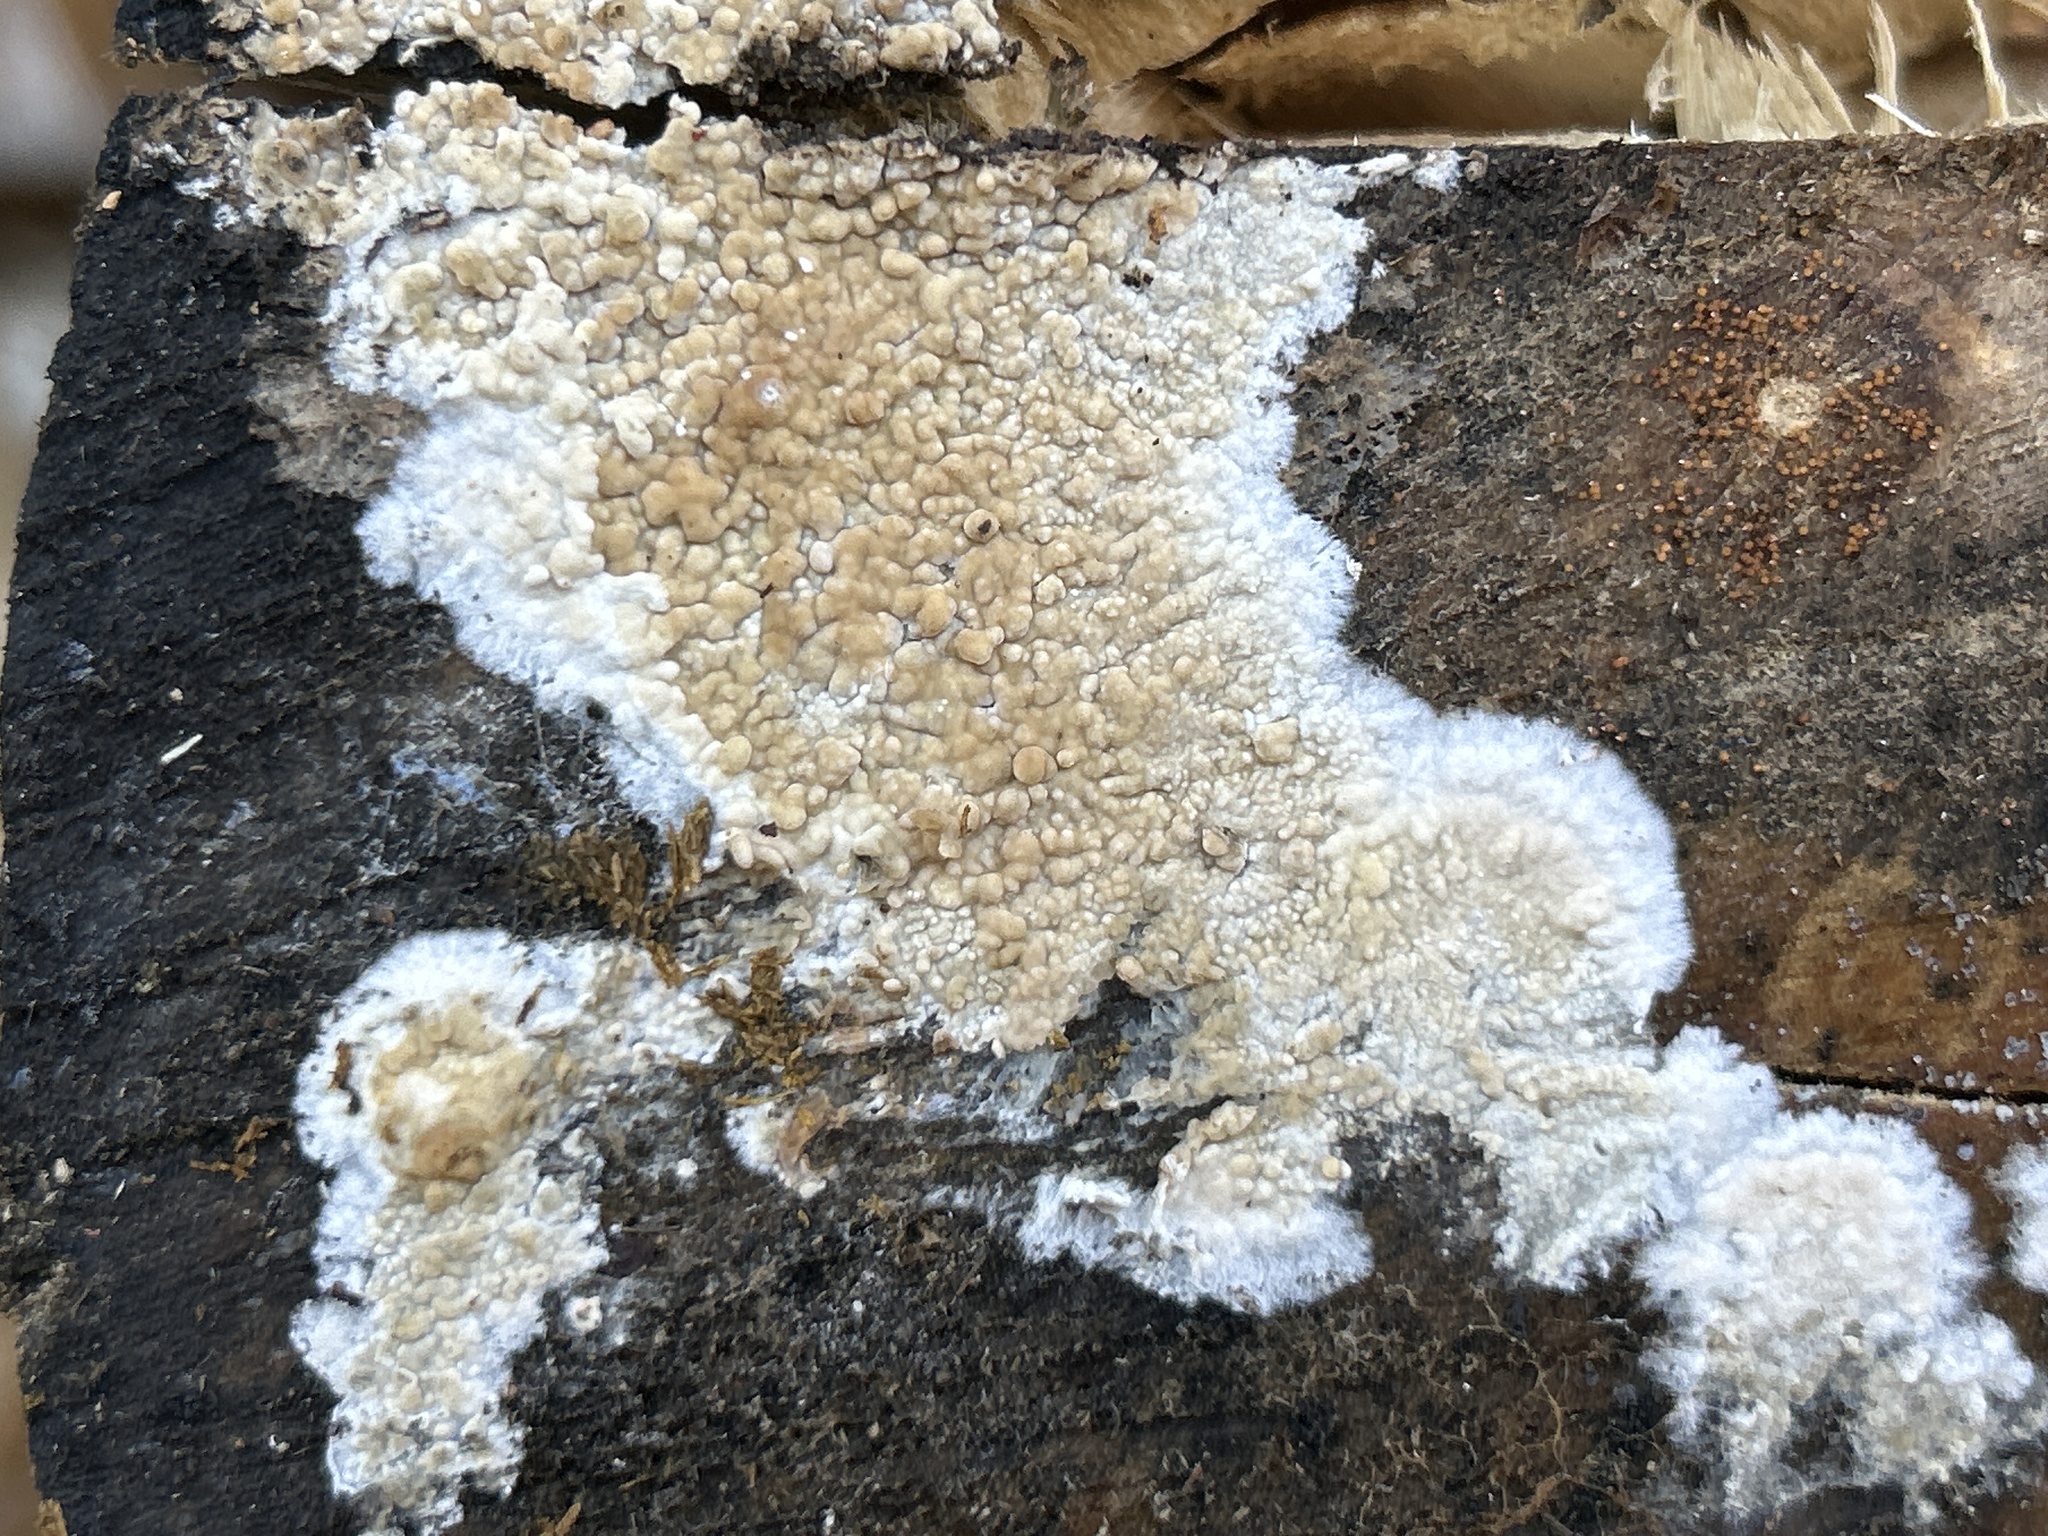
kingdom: Fungi
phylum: Basidiomycota
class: Agaricomycetes
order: Boletales
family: Coniophoraceae
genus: Coniophora
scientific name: Coniophora puteana
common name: Cellar fungus
